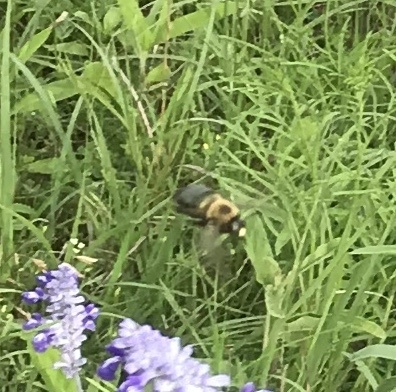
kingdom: Animalia
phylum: Arthropoda
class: Insecta
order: Hymenoptera
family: Apidae
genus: Xylocopa
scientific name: Xylocopa virginica
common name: Carpenter bee
